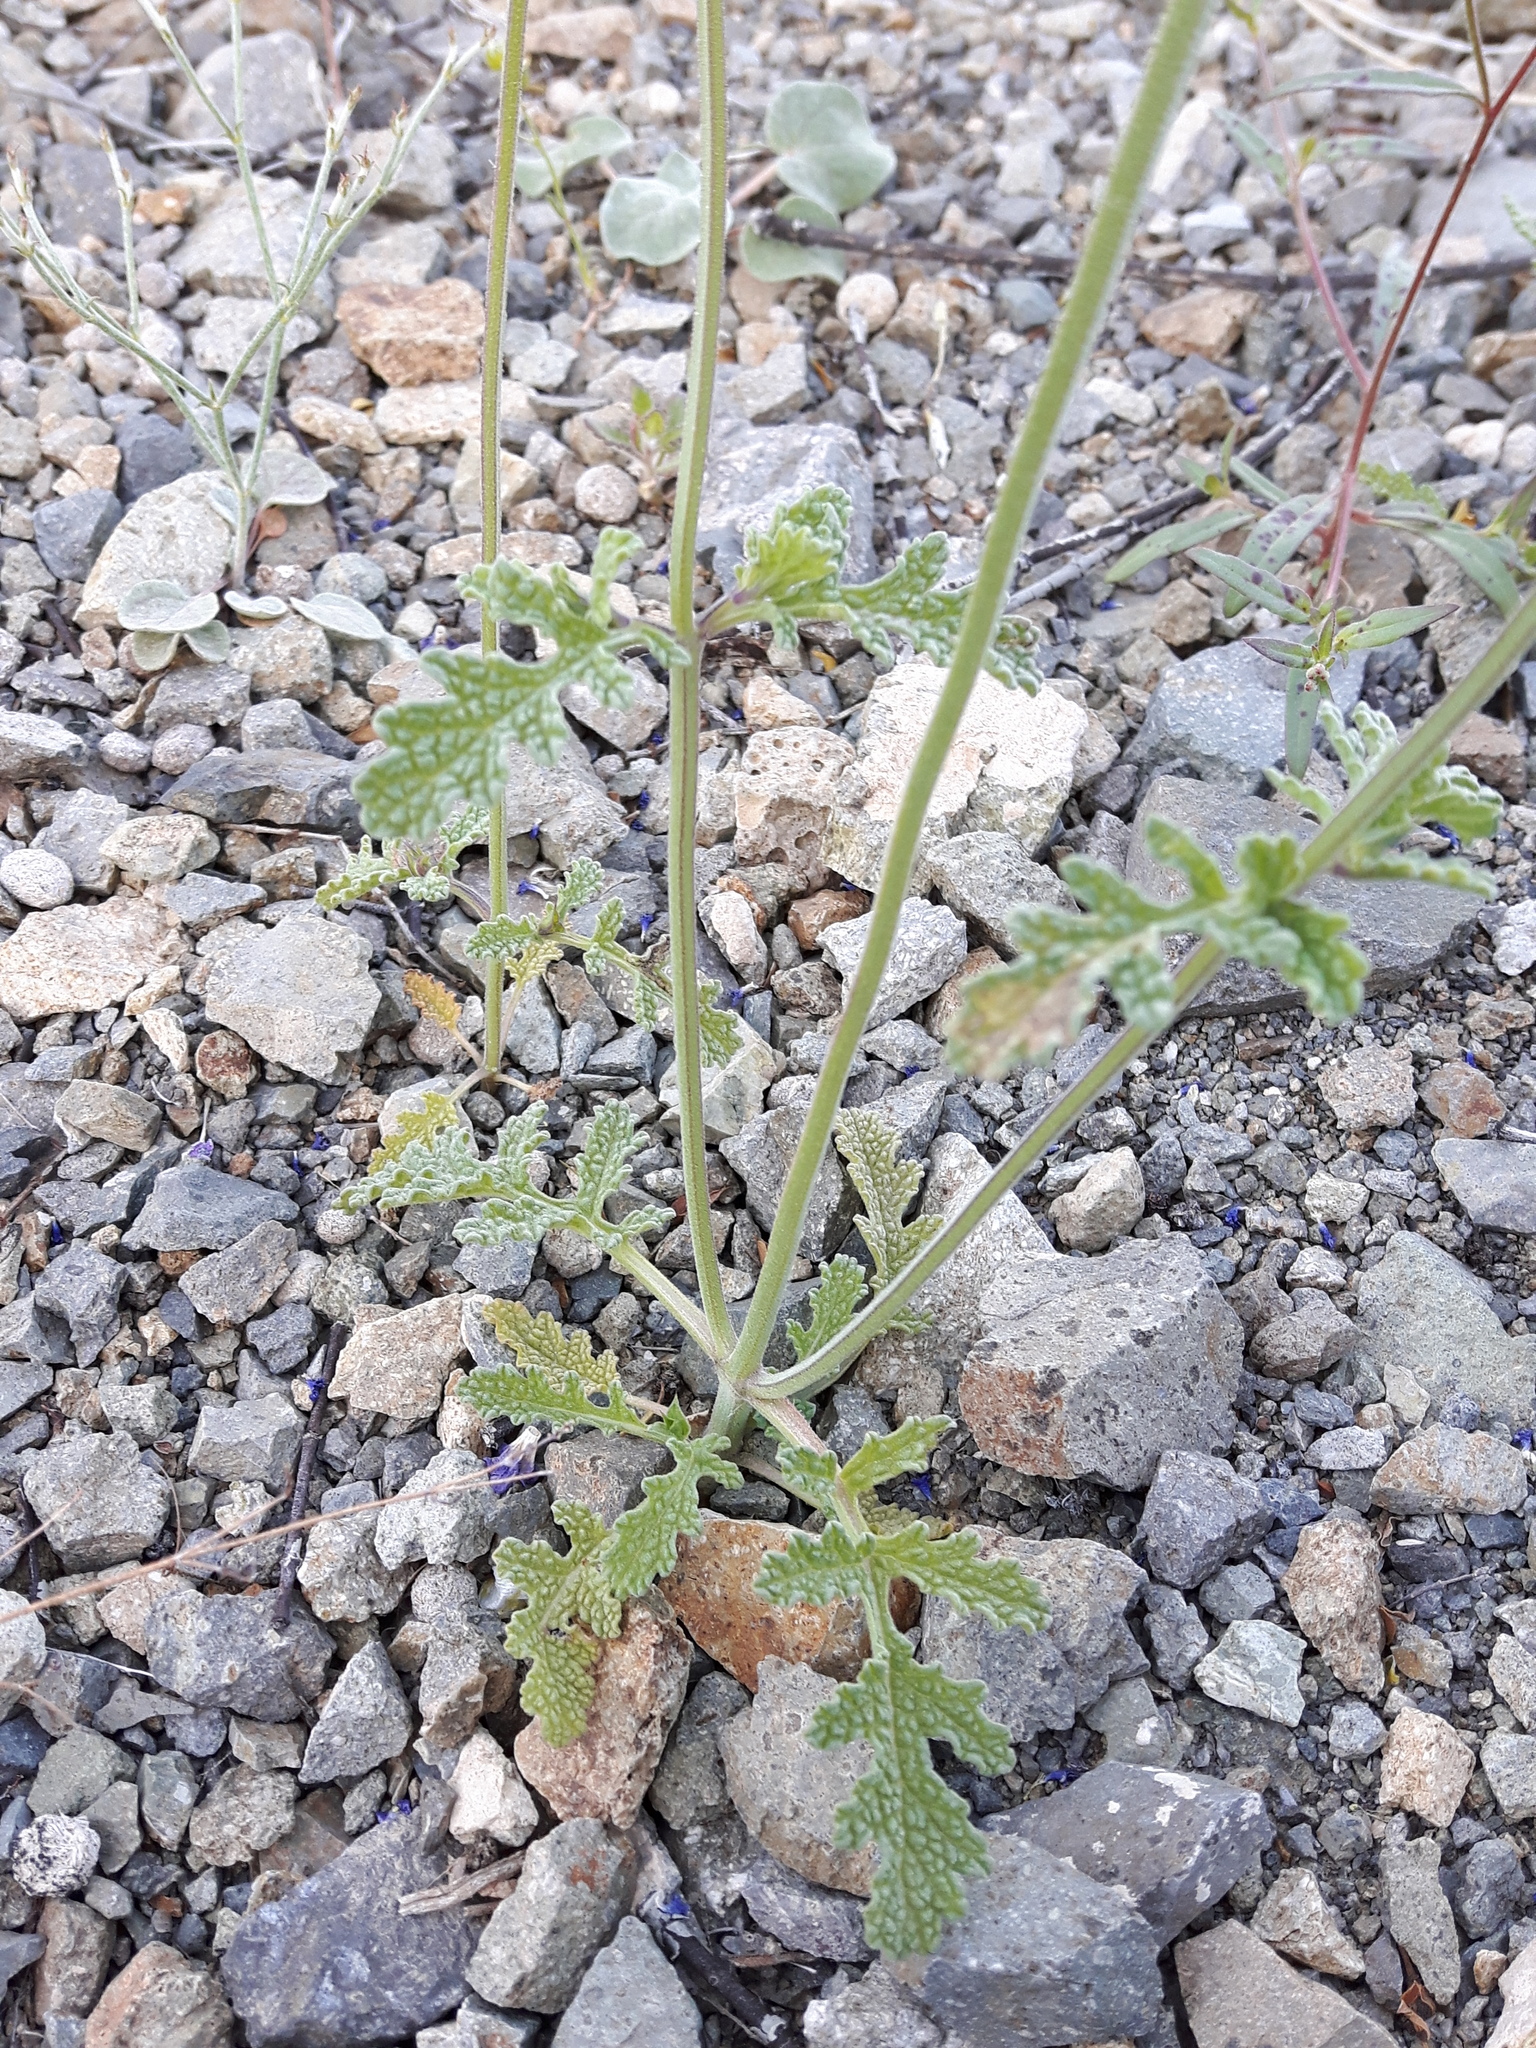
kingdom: Plantae
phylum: Tracheophyta
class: Magnoliopsida
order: Lamiales
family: Lamiaceae
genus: Salvia
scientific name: Salvia columbariae
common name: Chia
